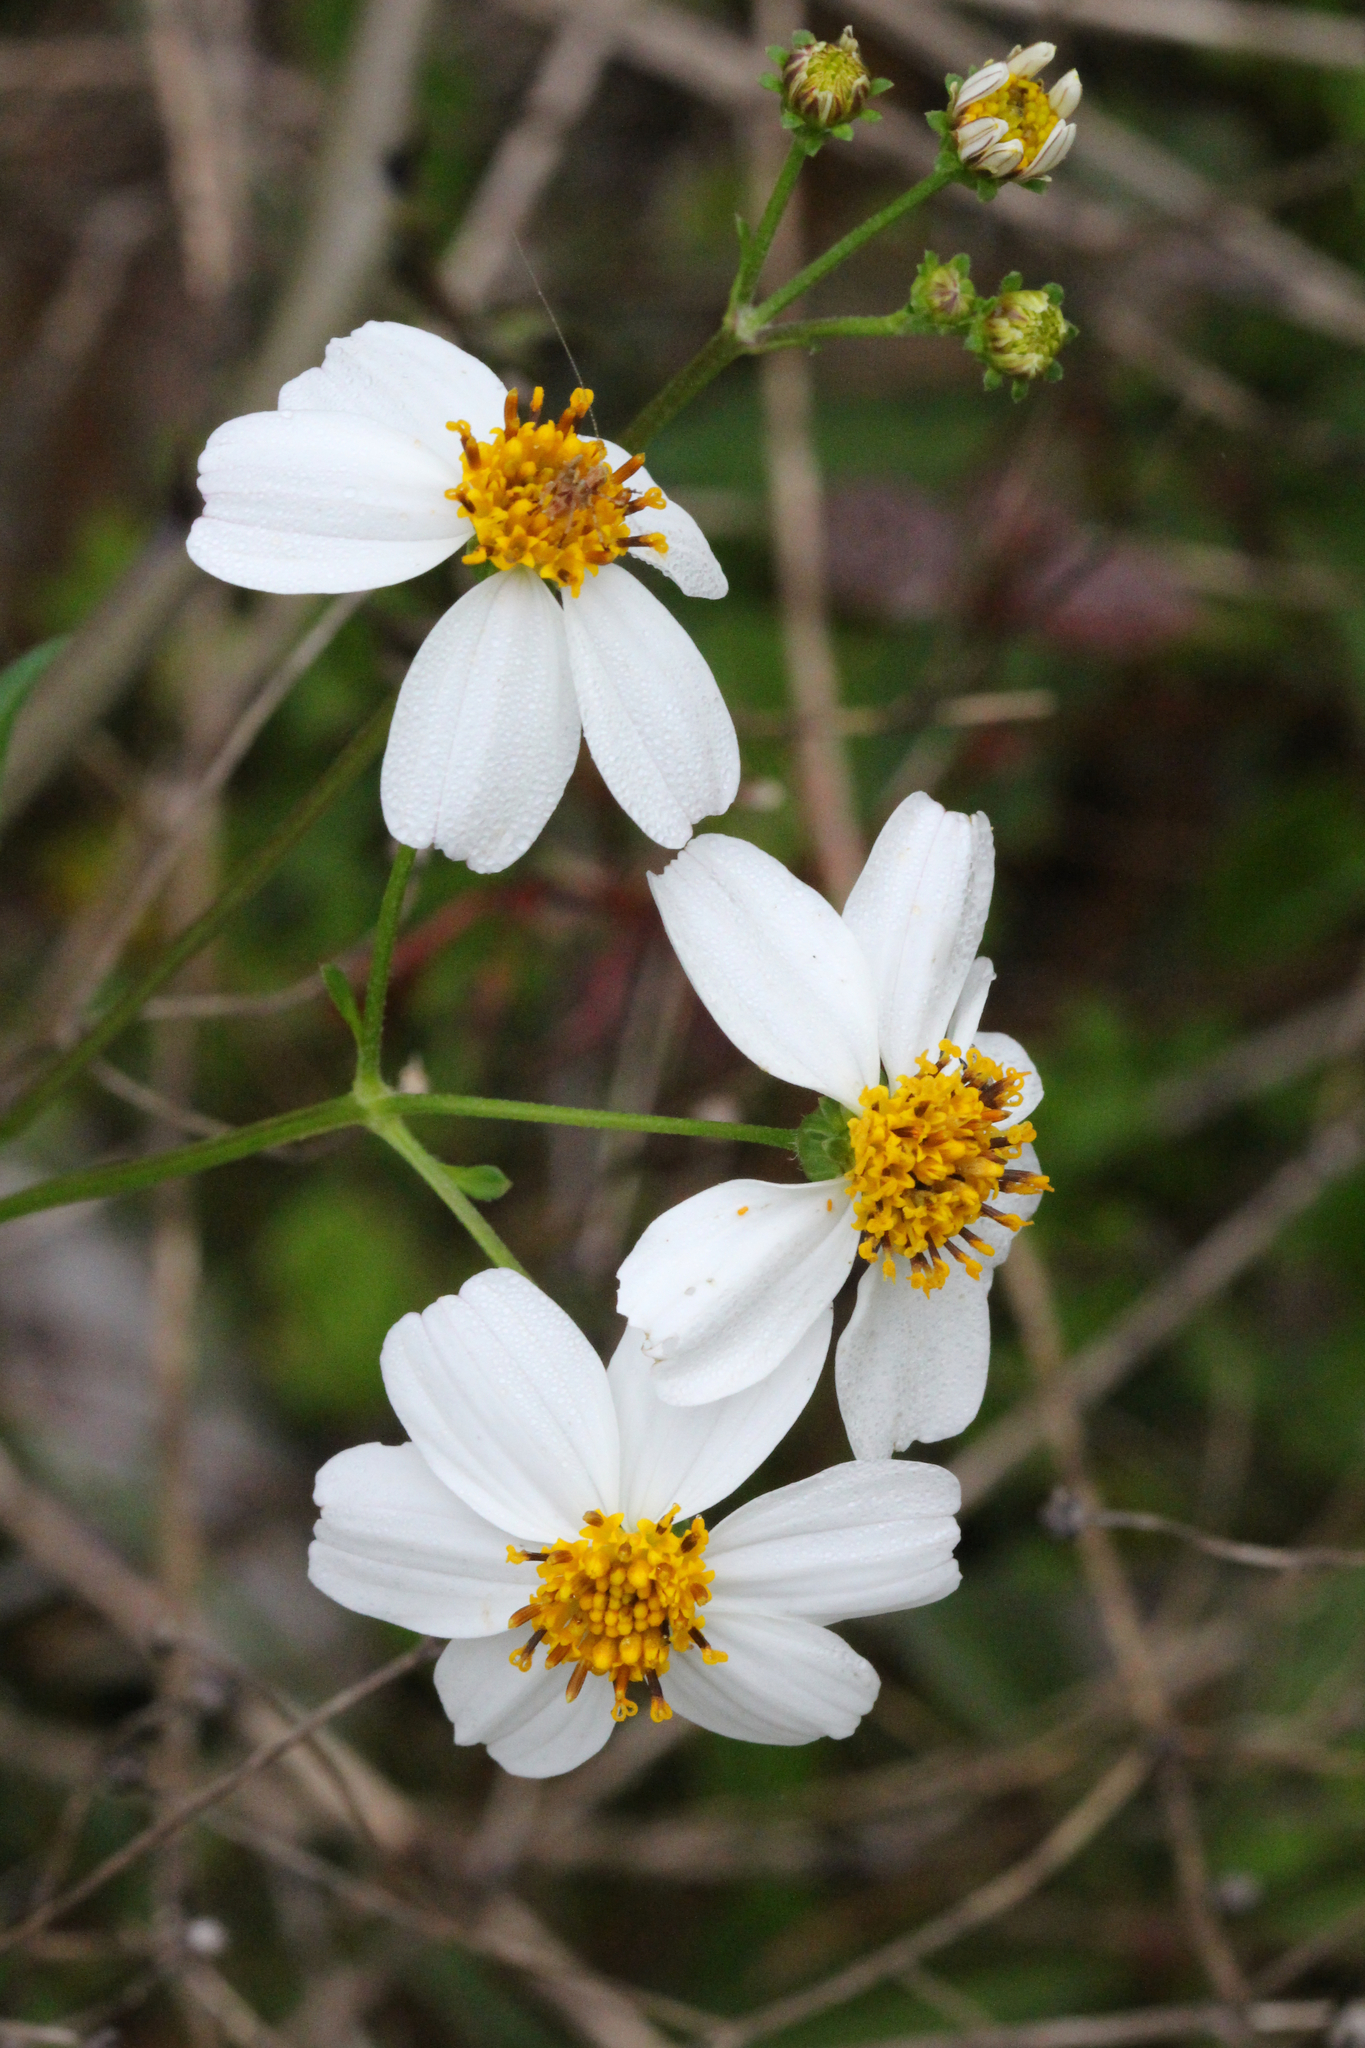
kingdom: Plantae
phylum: Tracheophyta
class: Magnoliopsida
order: Asterales
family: Asteraceae
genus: Bidens
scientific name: Bidens alba
